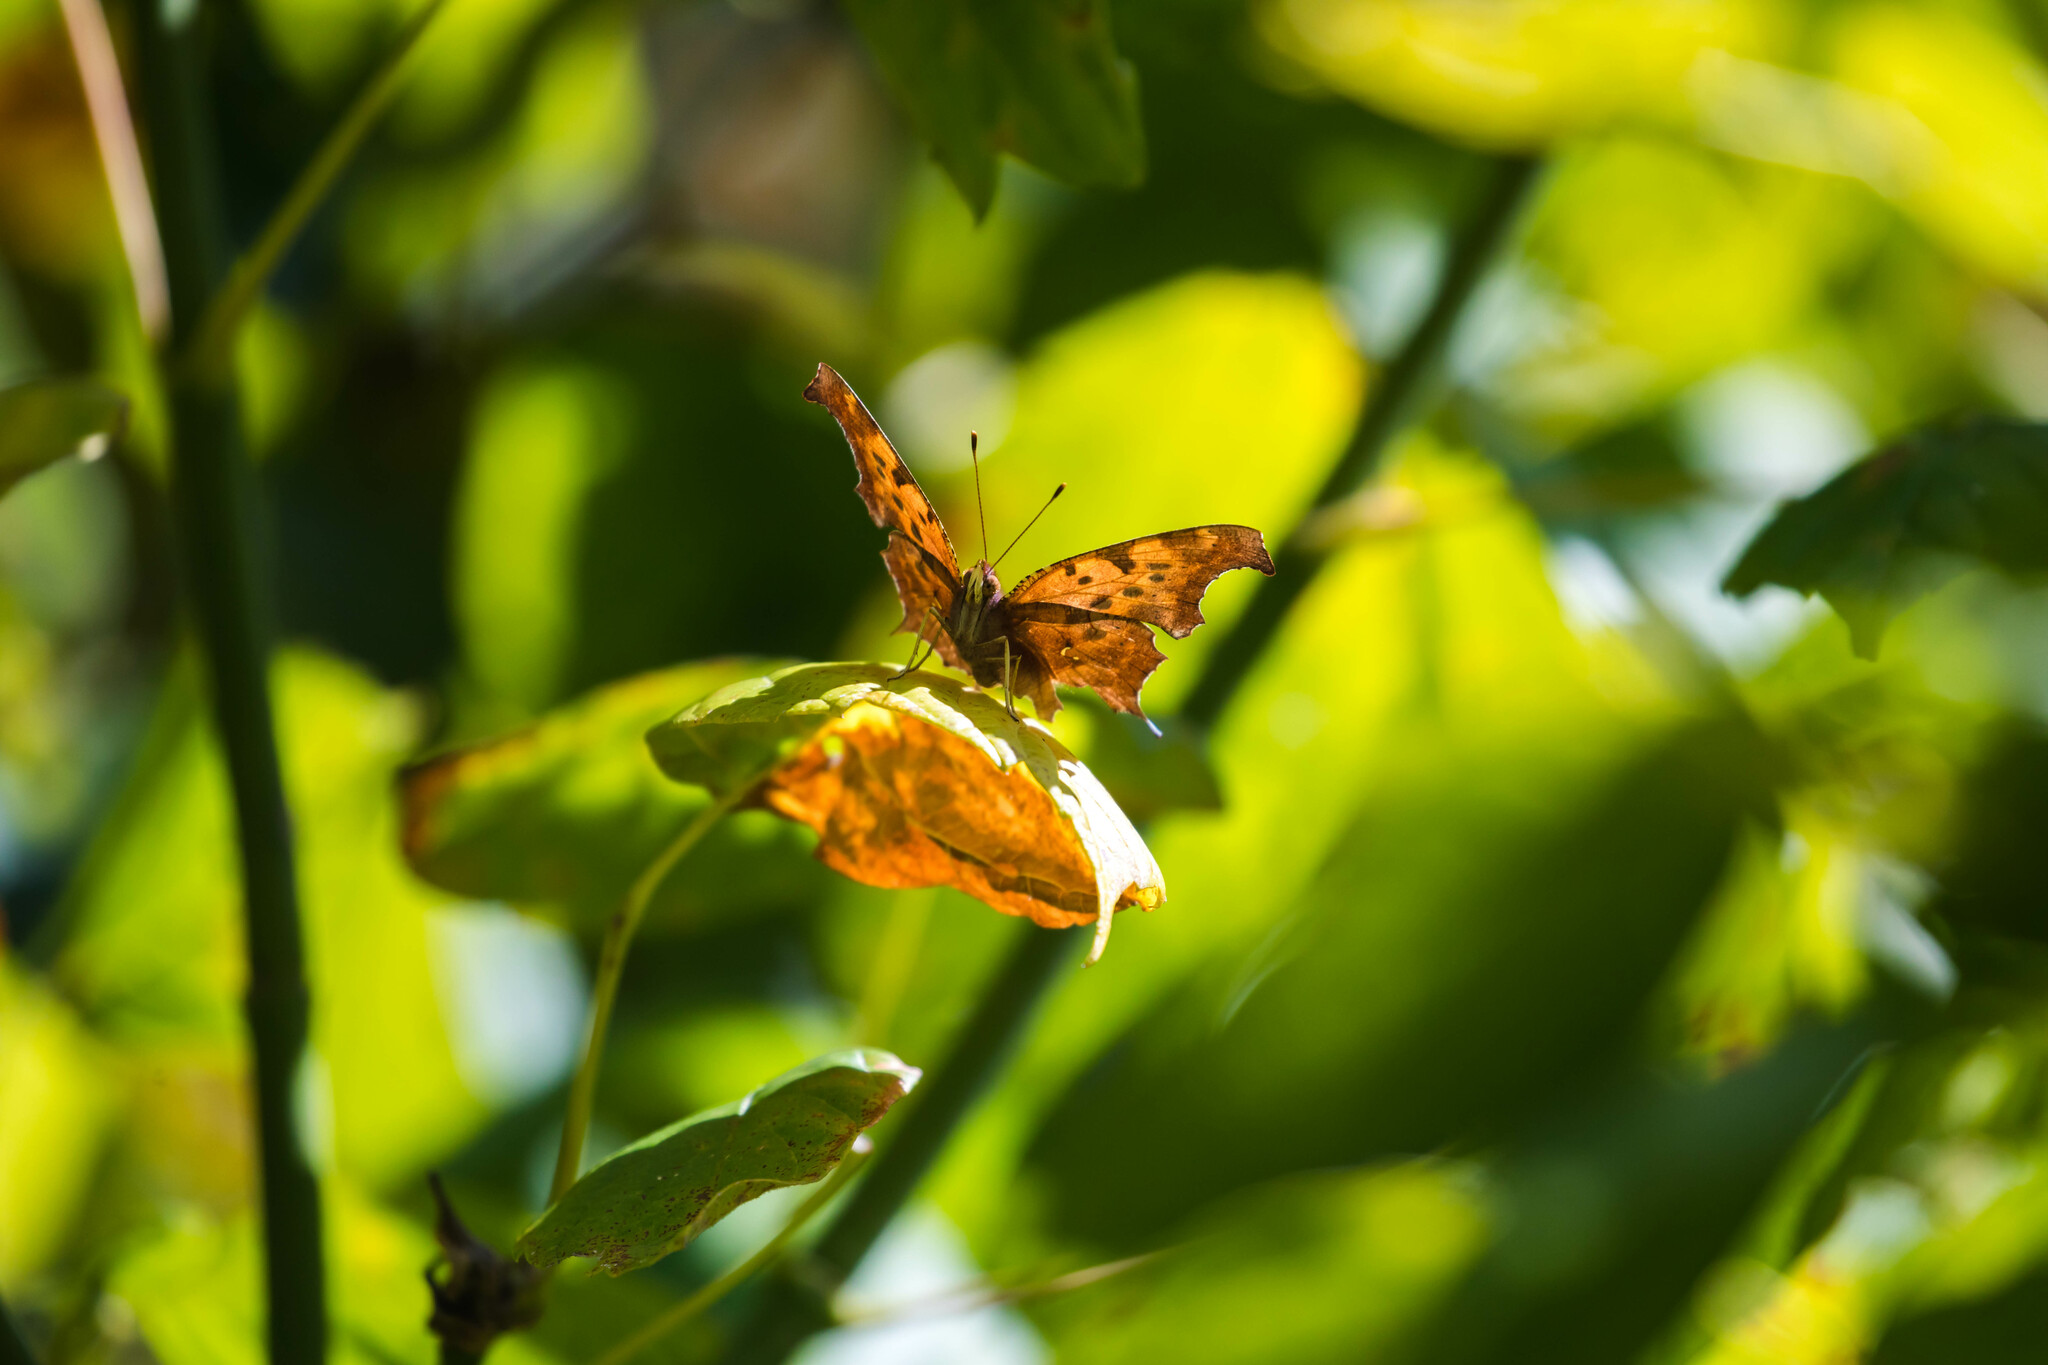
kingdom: Animalia
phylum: Arthropoda
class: Insecta
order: Lepidoptera
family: Nymphalidae
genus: Polygonia
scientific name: Polygonia interrogationis
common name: Question mark
